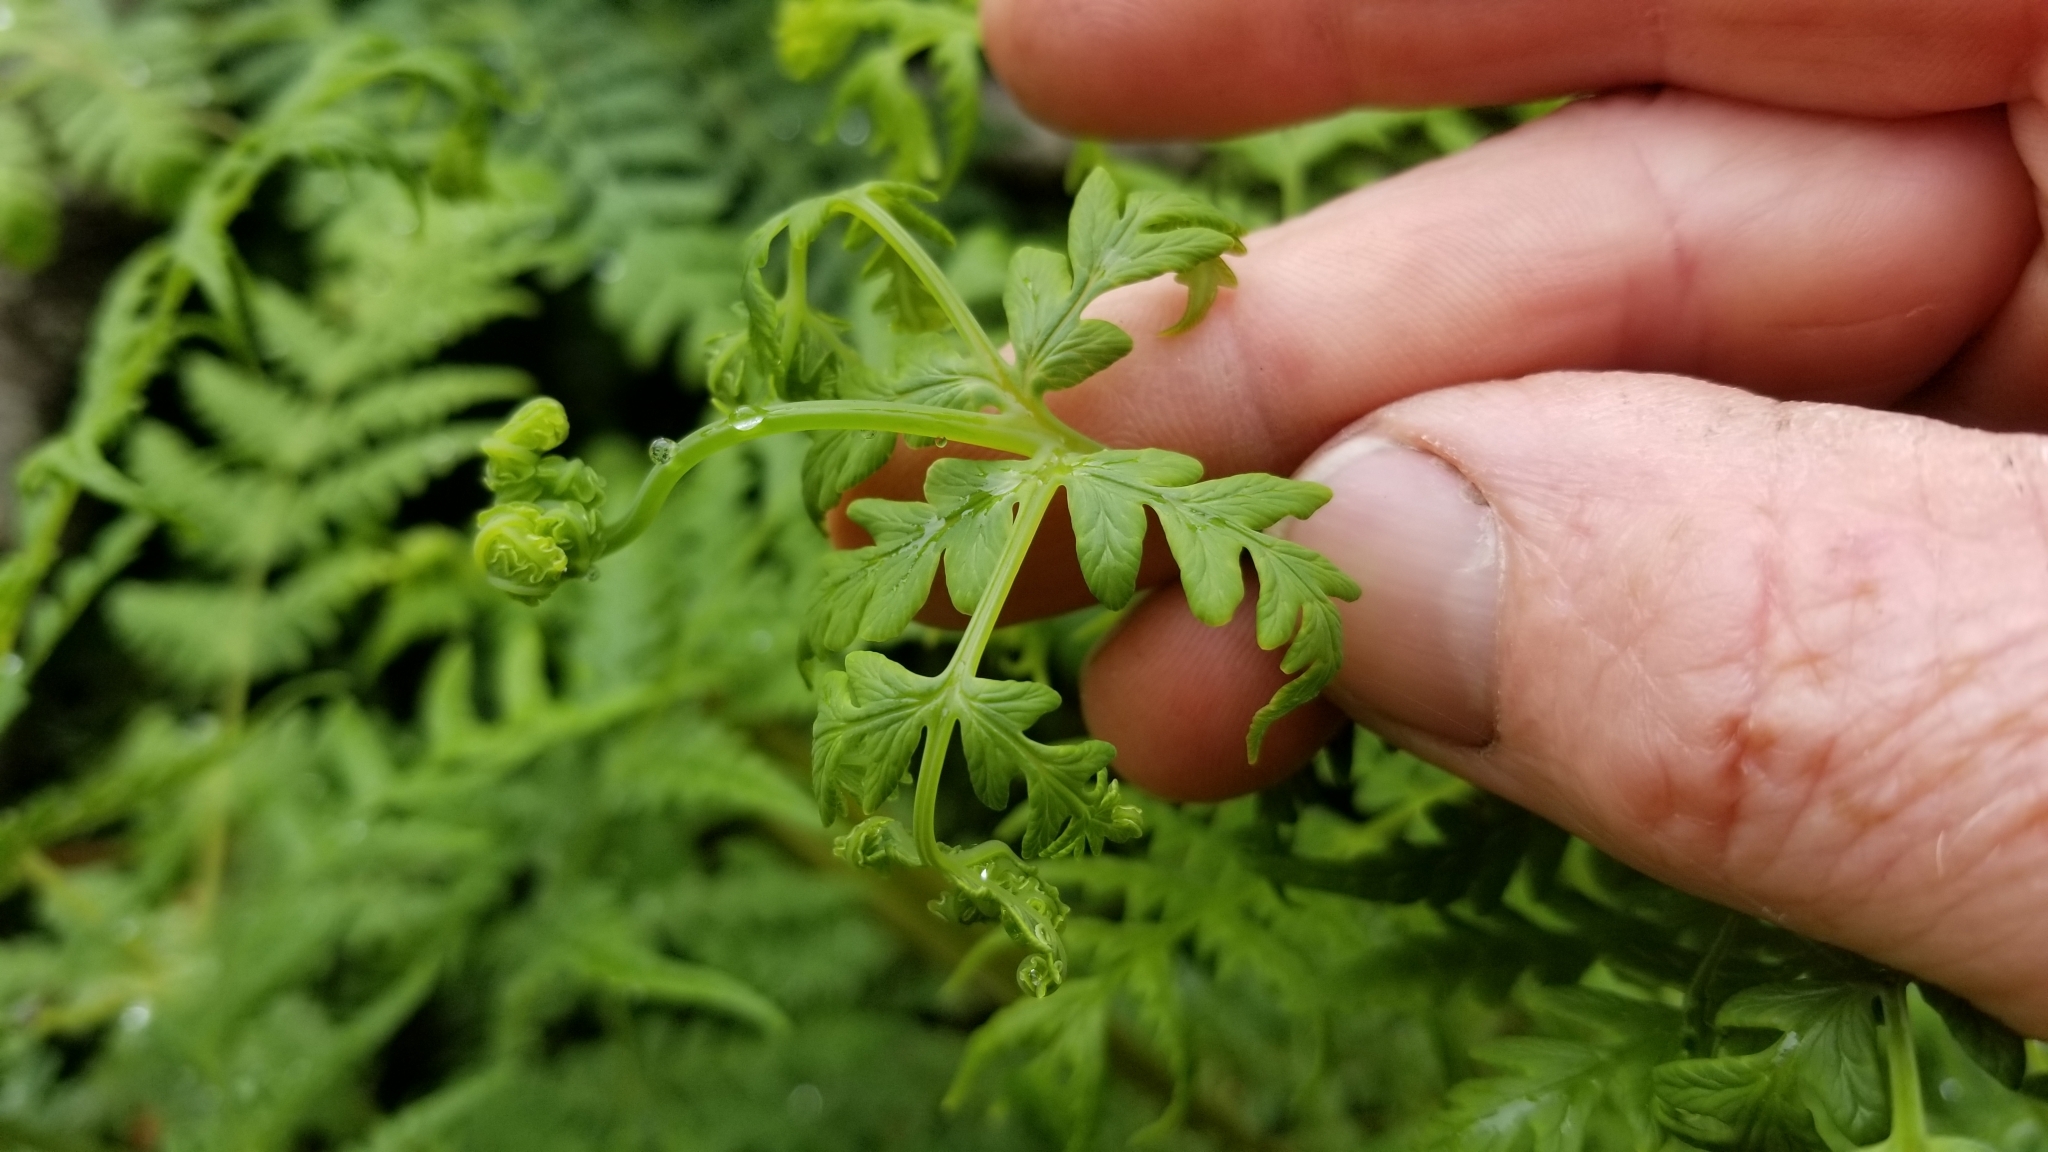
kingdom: Plantae
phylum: Tracheophyta
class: Polypodiopsida
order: Polypodiales
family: Dennstaedtiaceae
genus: Histiopteris
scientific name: Histiopteris incisa
